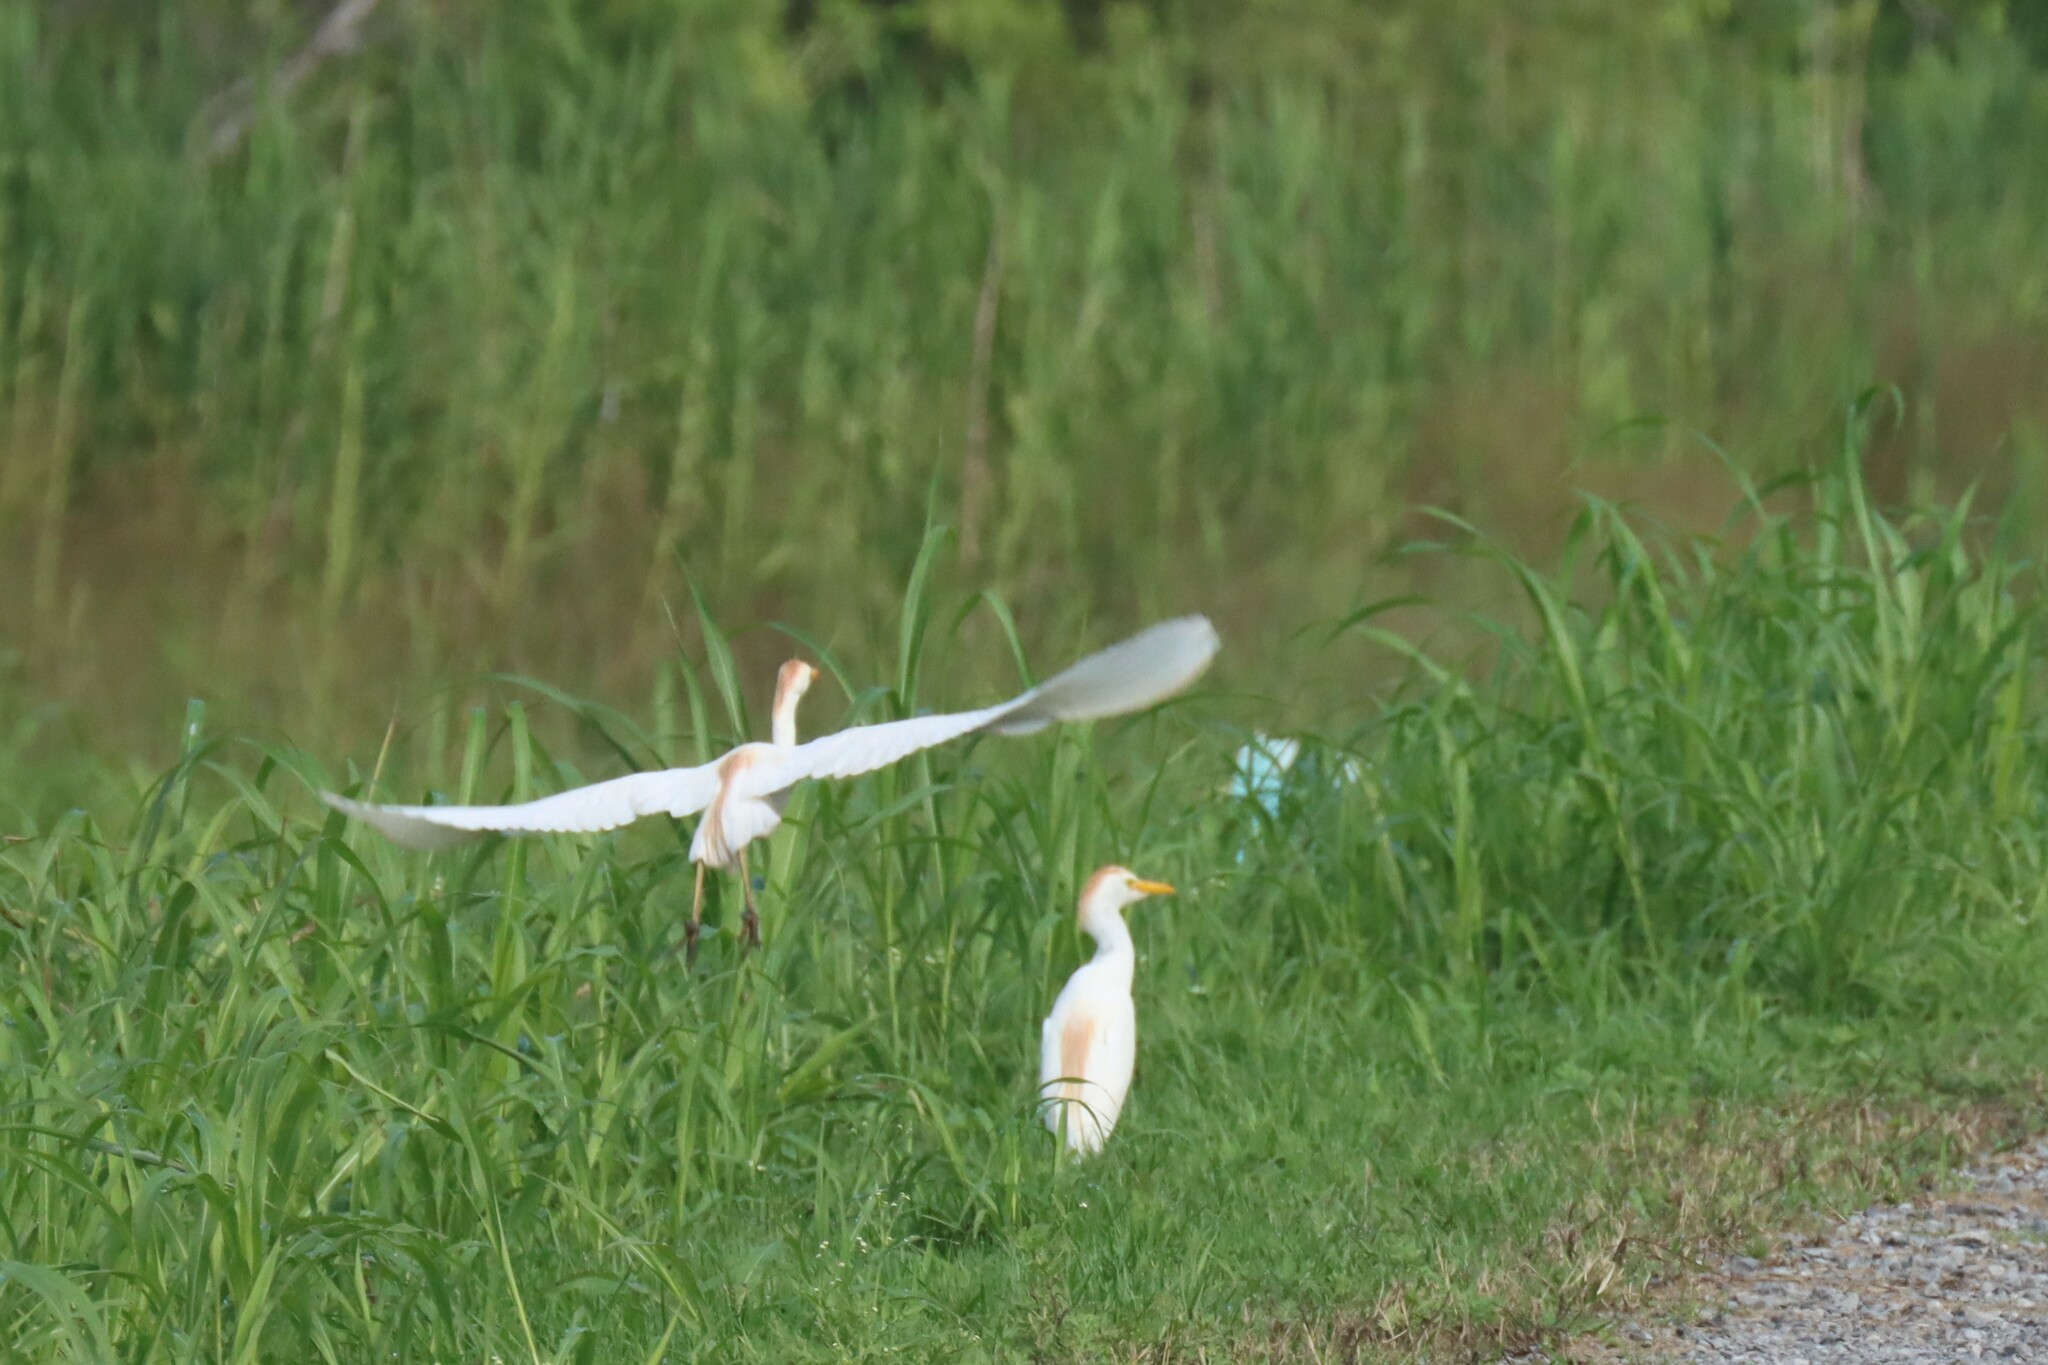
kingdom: Animalia
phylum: Chordata
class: Aves
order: Pelecaniformes
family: Ardeidae
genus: Bubulcus
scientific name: Bubulcus ibis
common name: Cattle egret
